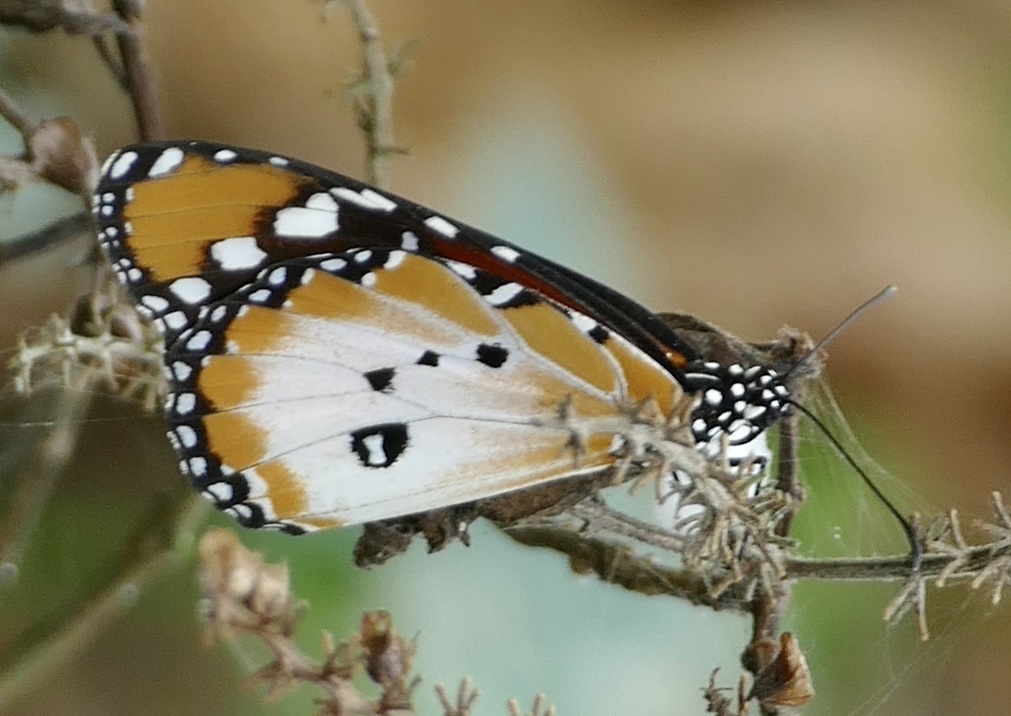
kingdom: Animalia
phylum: Arthropoda
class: Insecta
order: Lepidoptera
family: Nymphalidae
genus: Danaus
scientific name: Danaus chrysippus
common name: Plain tiger
